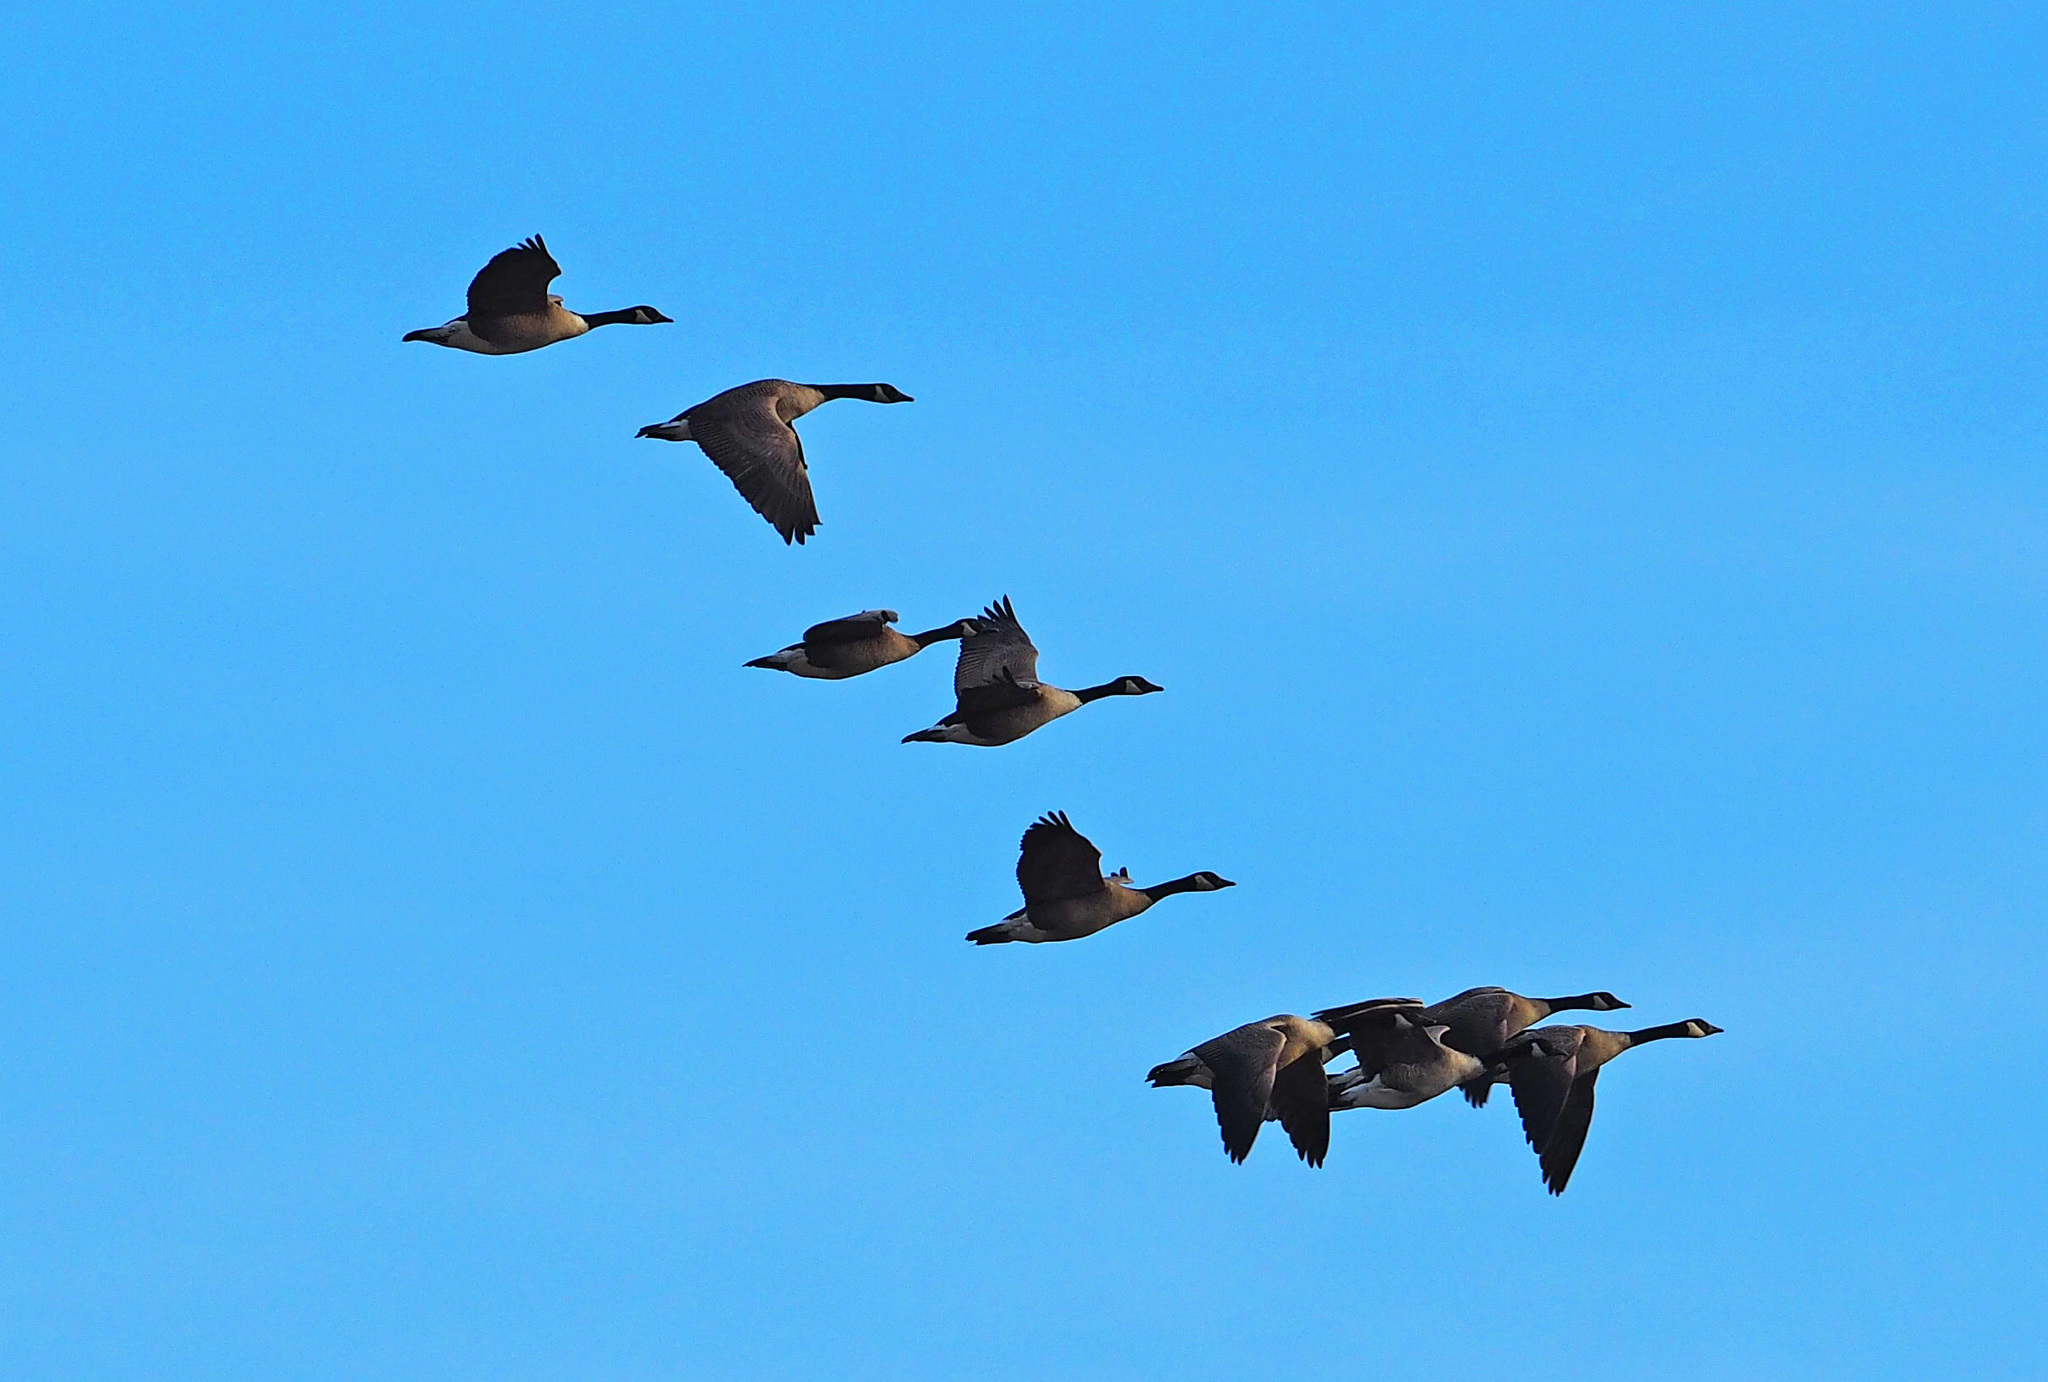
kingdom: Animalia
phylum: Chordata
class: Aves
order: Anseriformes
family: Anatidae
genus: Branta
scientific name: Branta canadensis
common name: Canada goose
